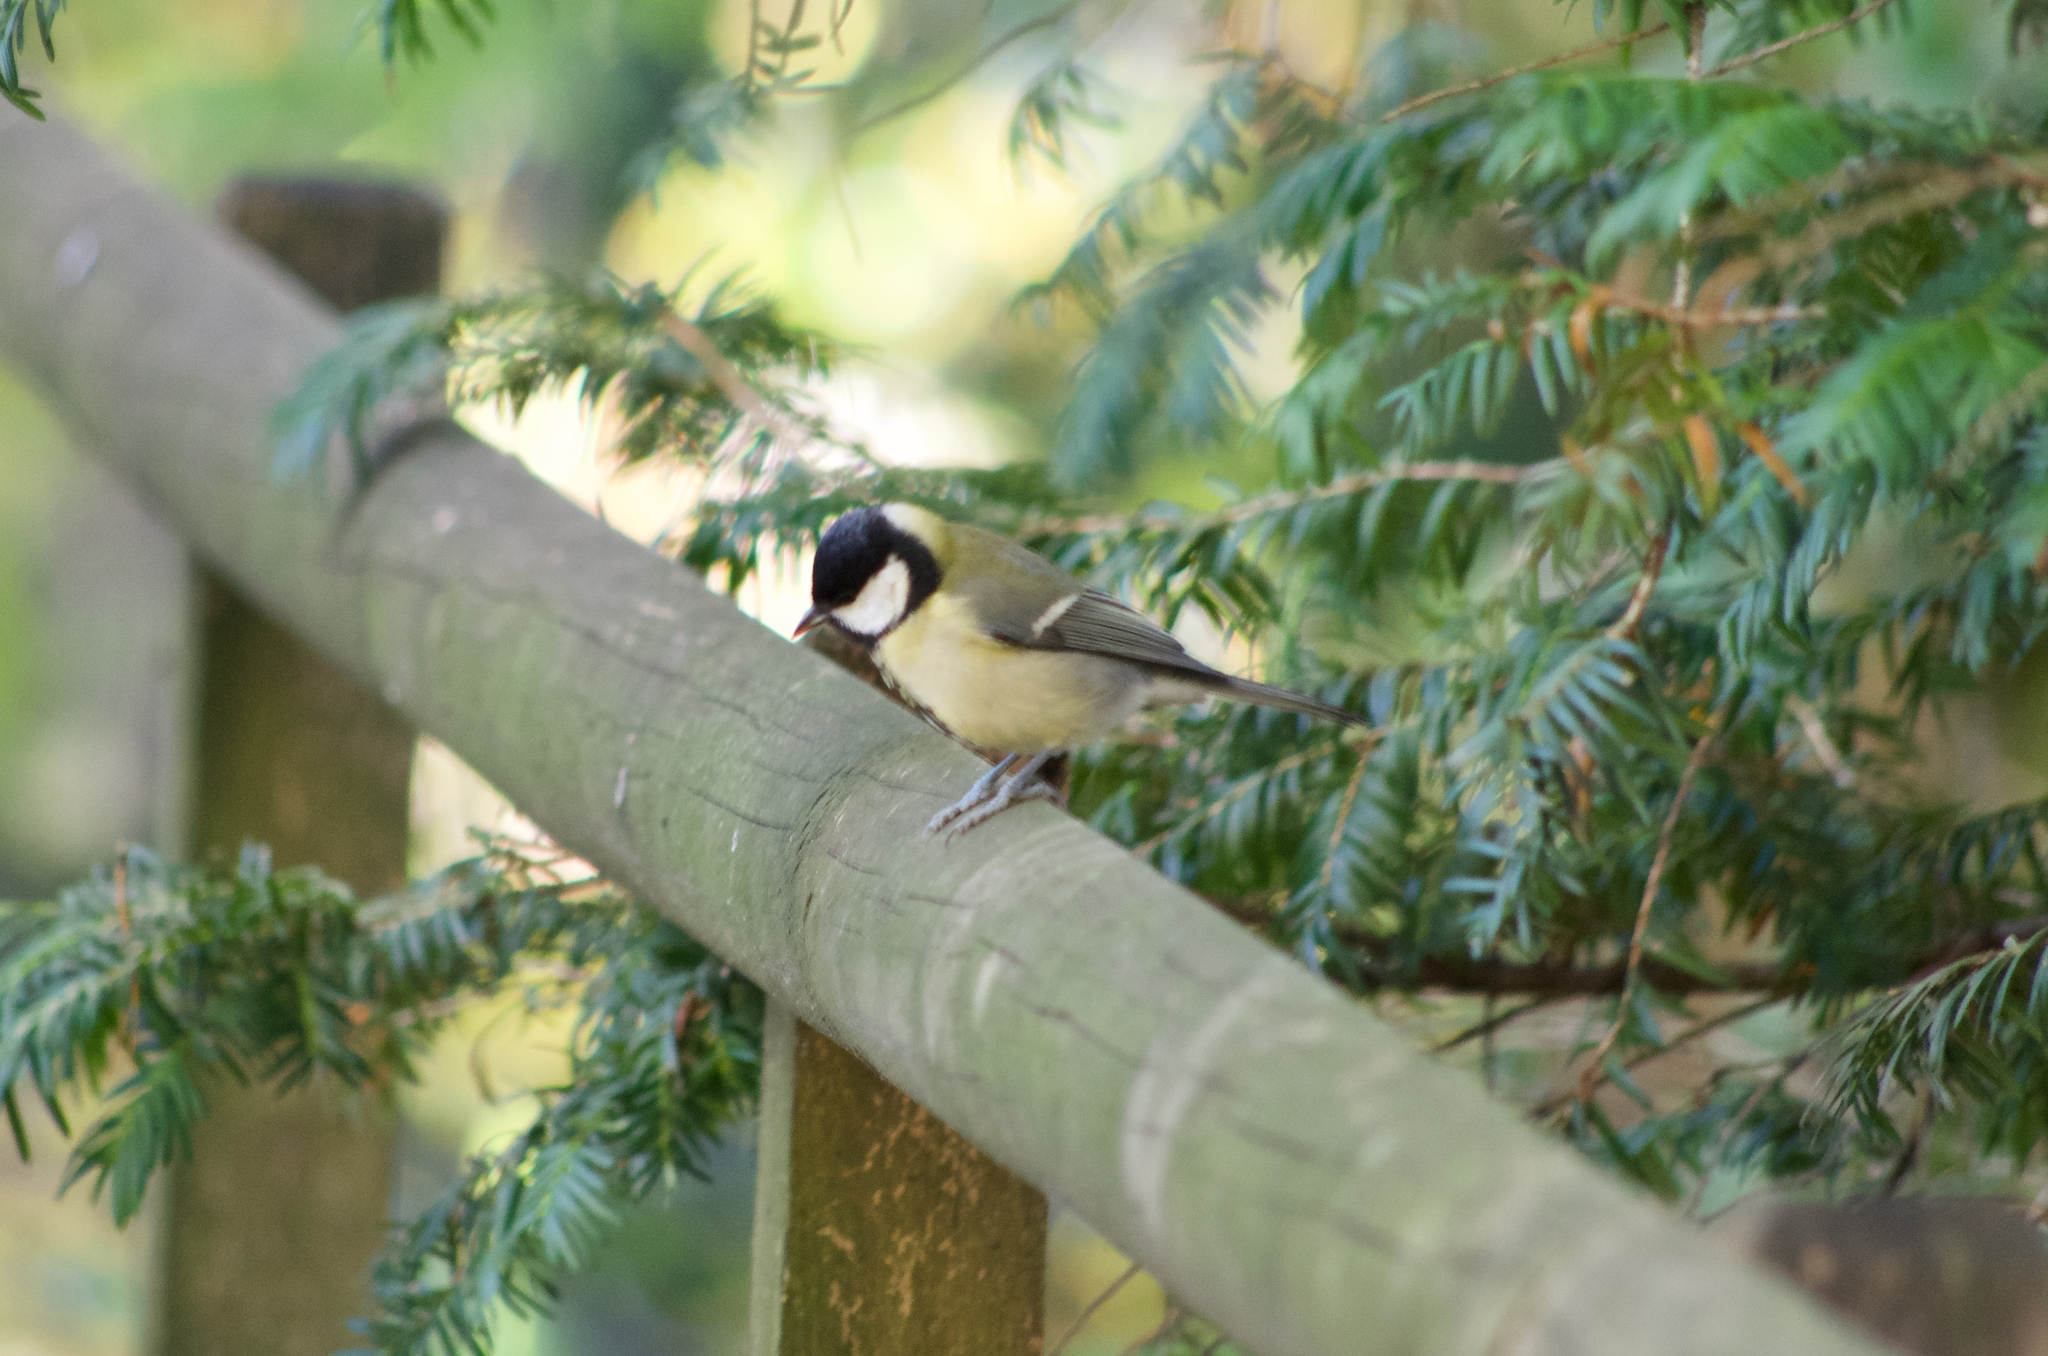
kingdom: Animalia
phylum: Chordata
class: Aves
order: Passeriformes
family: Paridae
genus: Parus
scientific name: Parus major
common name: Great tit
